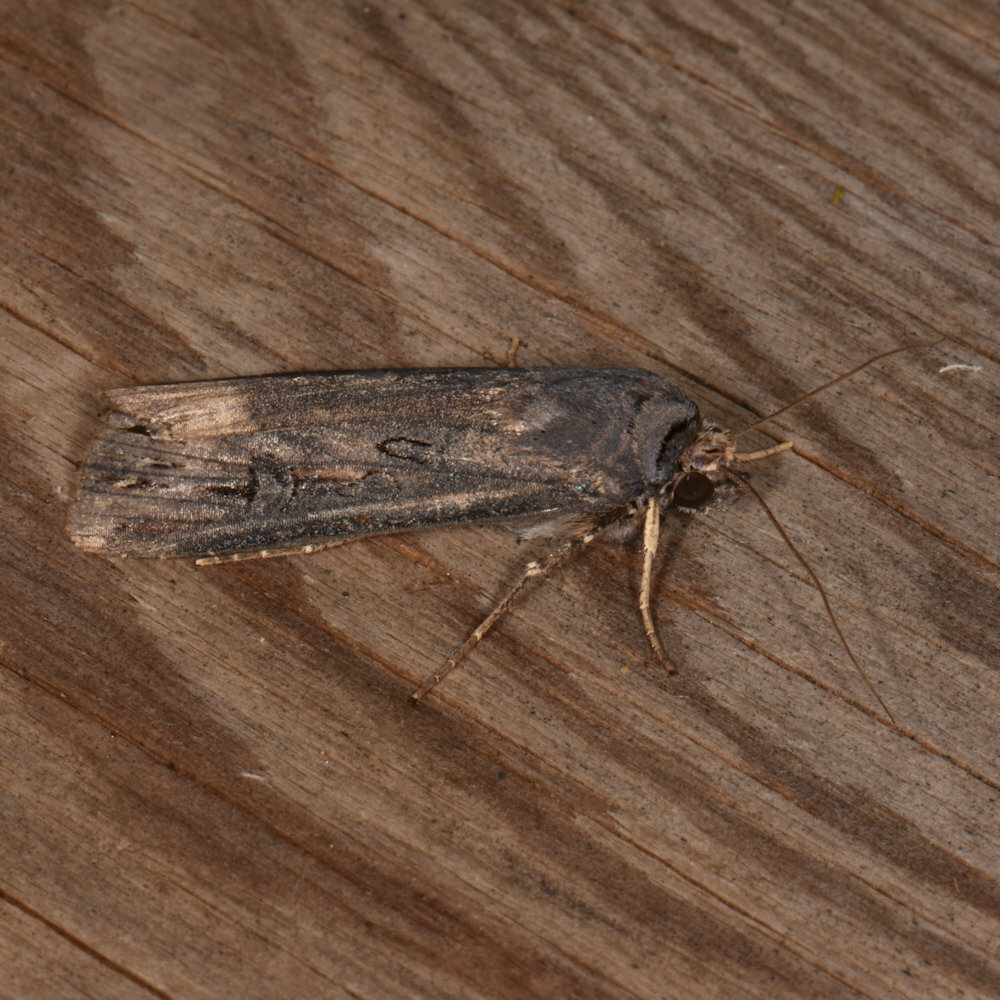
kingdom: Animalia
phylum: Arthropoda
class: Insecta
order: Lepidoptera
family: Noctuidae
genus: Agrotis
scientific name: Agrotis ipsilon
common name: Dark sword-grass
